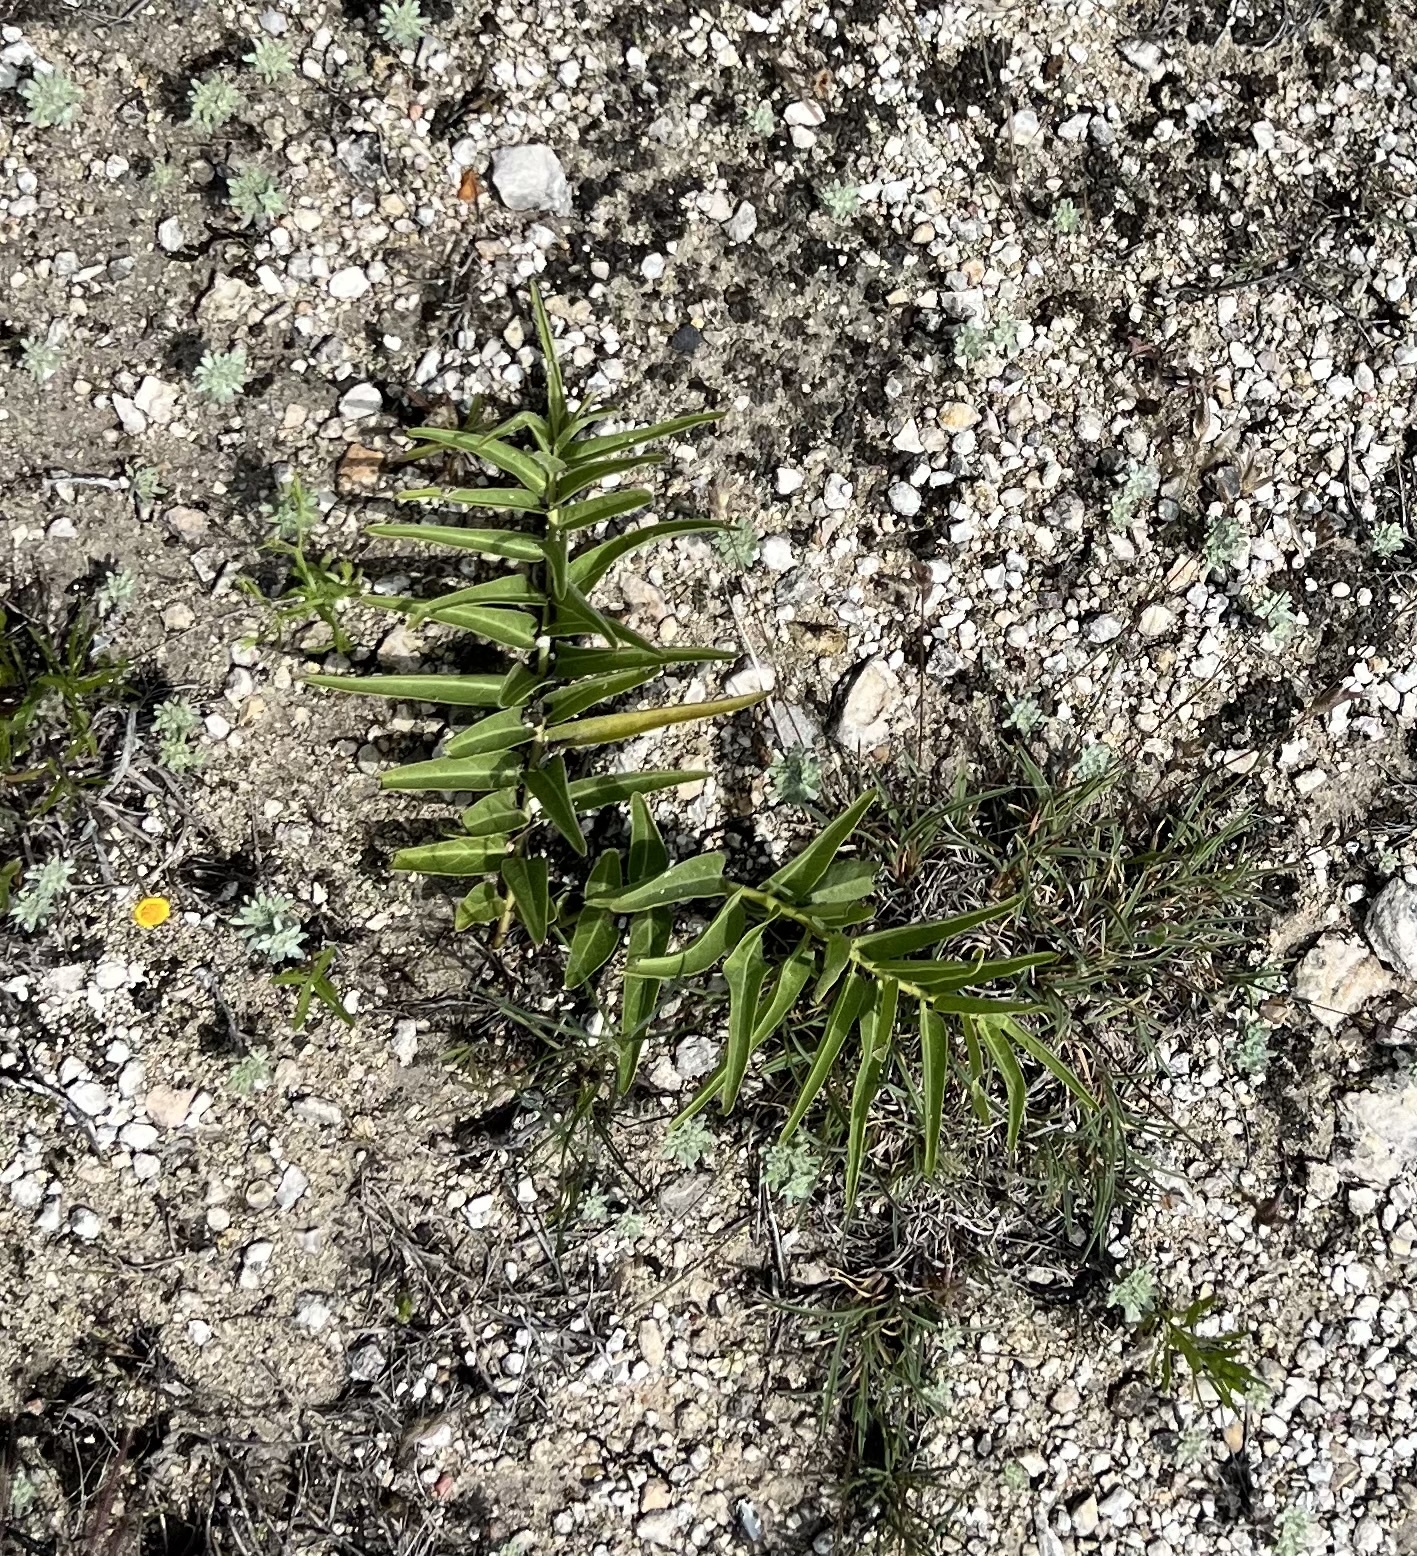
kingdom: Plantae
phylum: Tracheophyta
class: Magnoliopsida
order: Gentianales
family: Apocynaceae
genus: Asclepias
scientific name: Asclepias asperula
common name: Antelope horns
